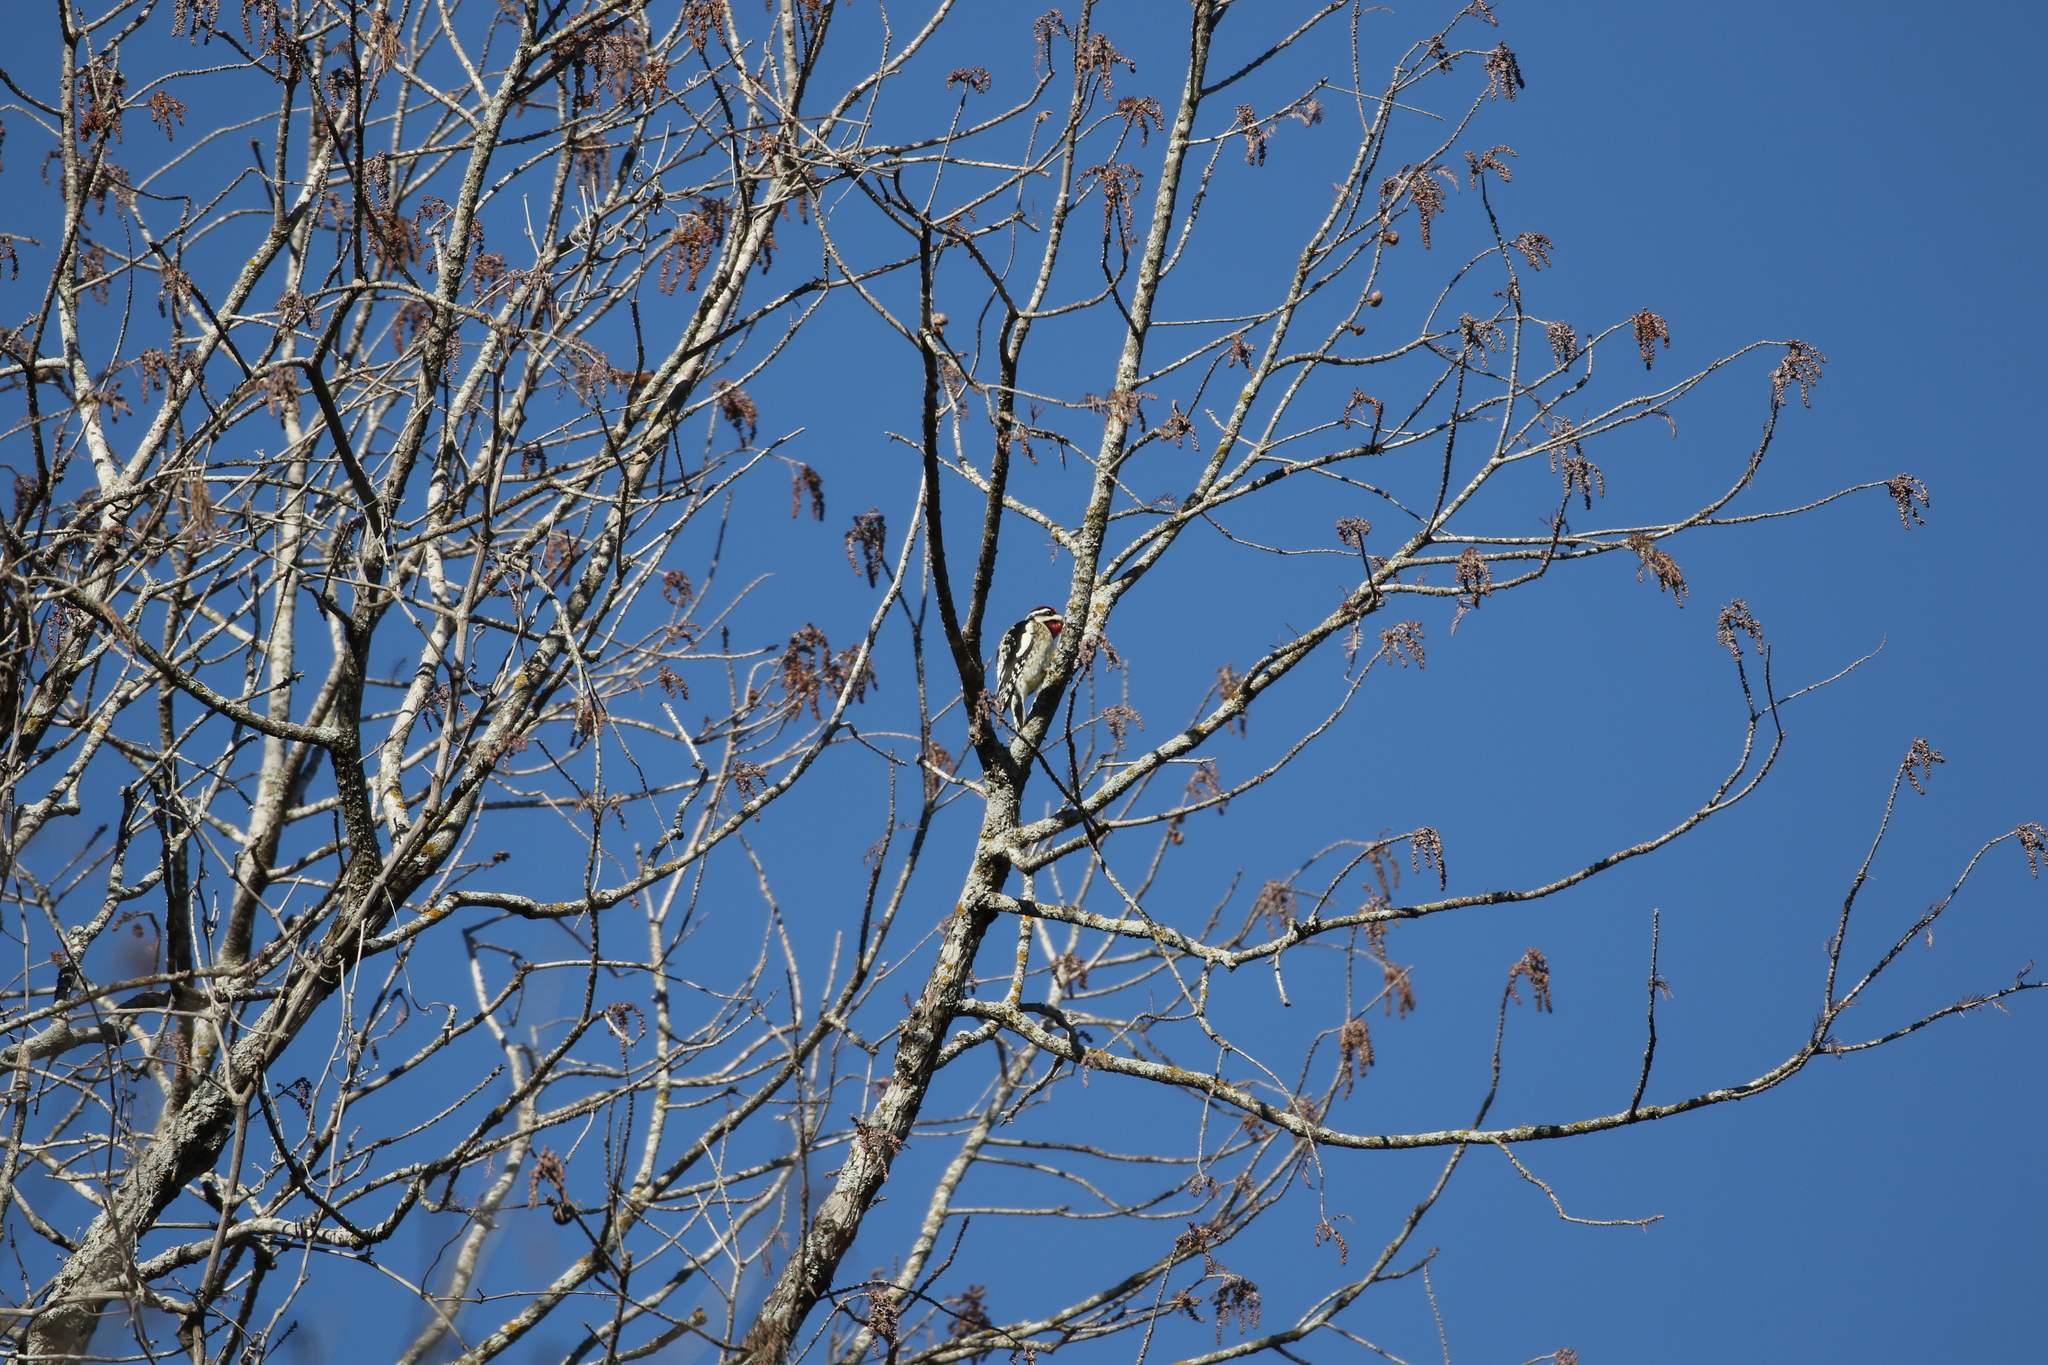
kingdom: Animalia
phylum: Chordata
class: Aves
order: Piciformes
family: Picidae
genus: Sphyrapicus
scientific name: Sphyrapicus varius
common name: Yellow-bellied sapsucker
